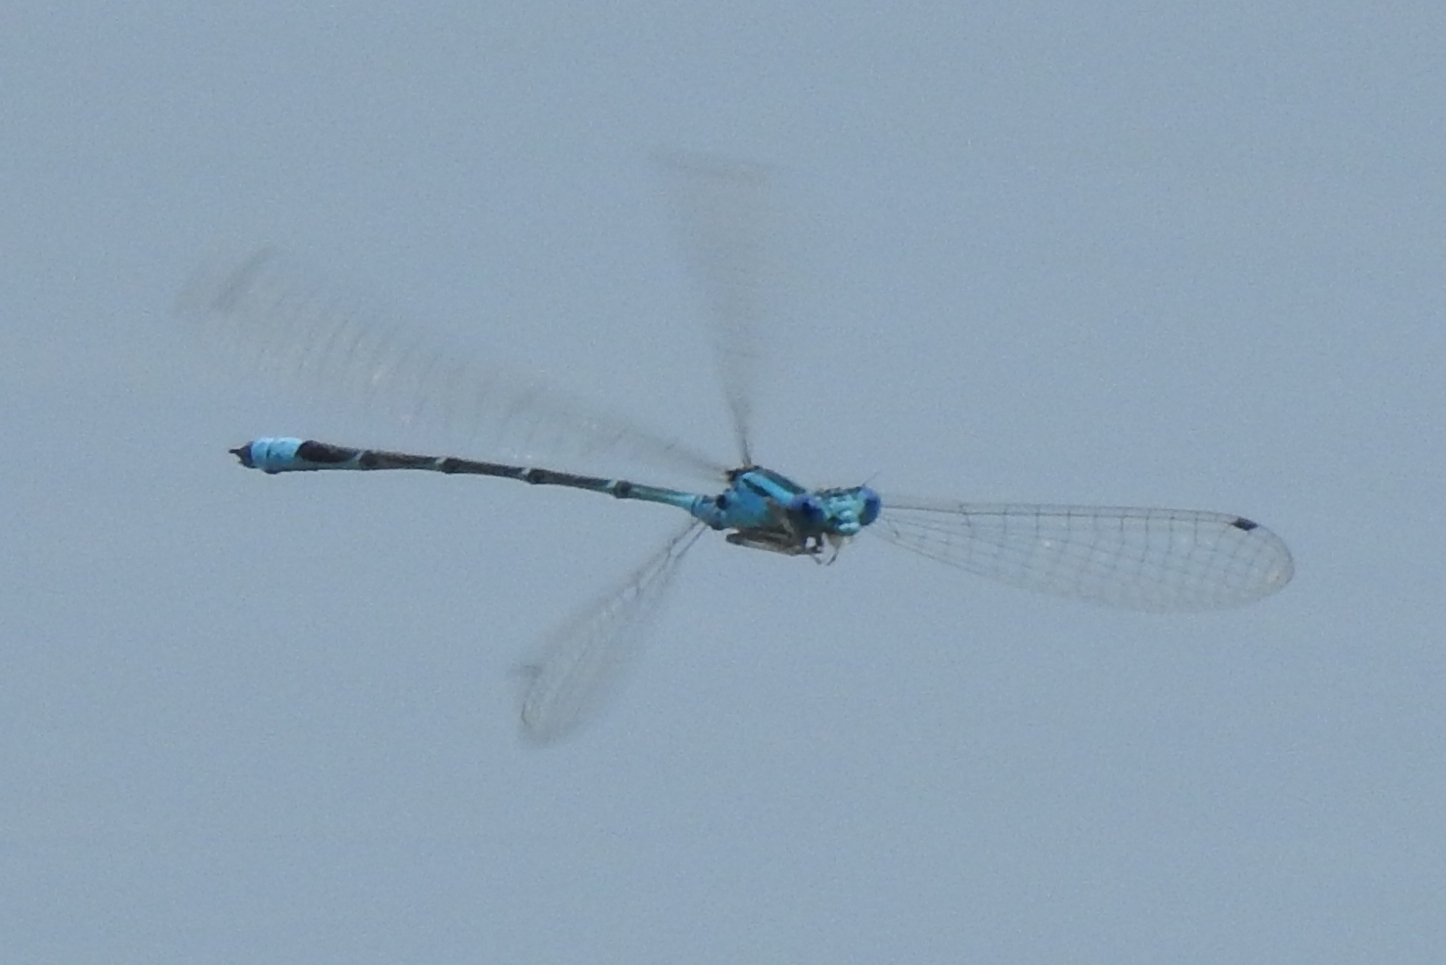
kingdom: Animalia
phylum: Arthropoda
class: Insecta
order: Odonata
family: Coenagrionidae
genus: Enallagma
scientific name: Enallagma traviatum
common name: Slender bluet
